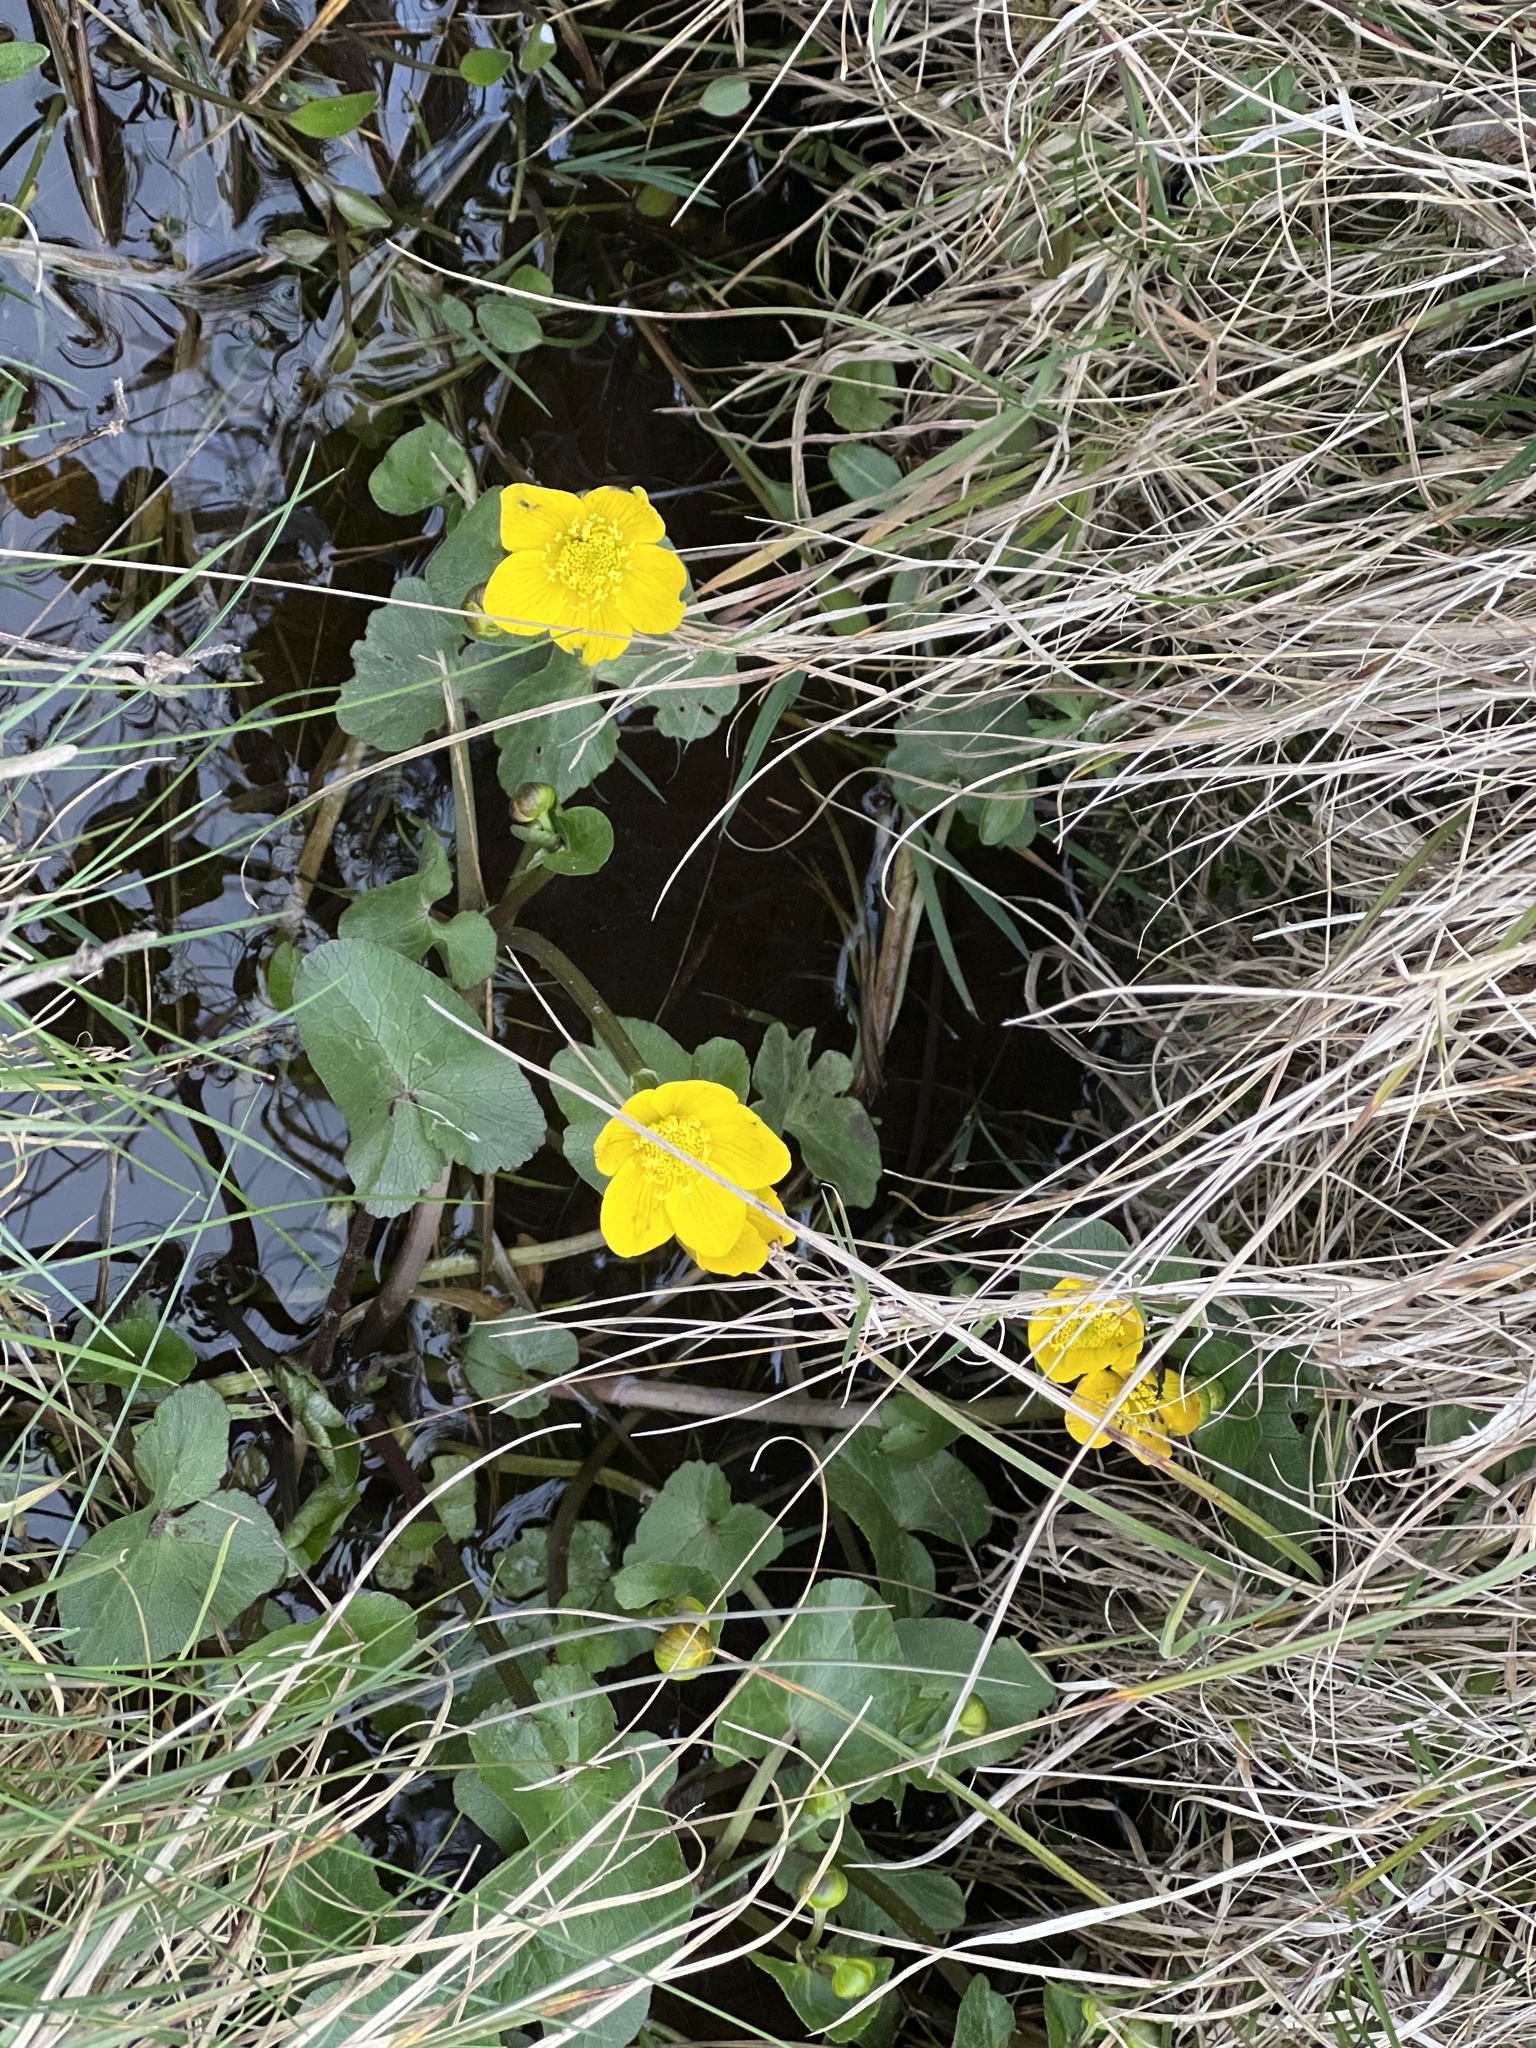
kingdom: Plantae
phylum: Tracheophyta
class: Magnoliopsida
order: Ranunculales
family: Ranunculaceae
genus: Caltha
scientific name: Caltha palustris
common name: Marsh marigold
